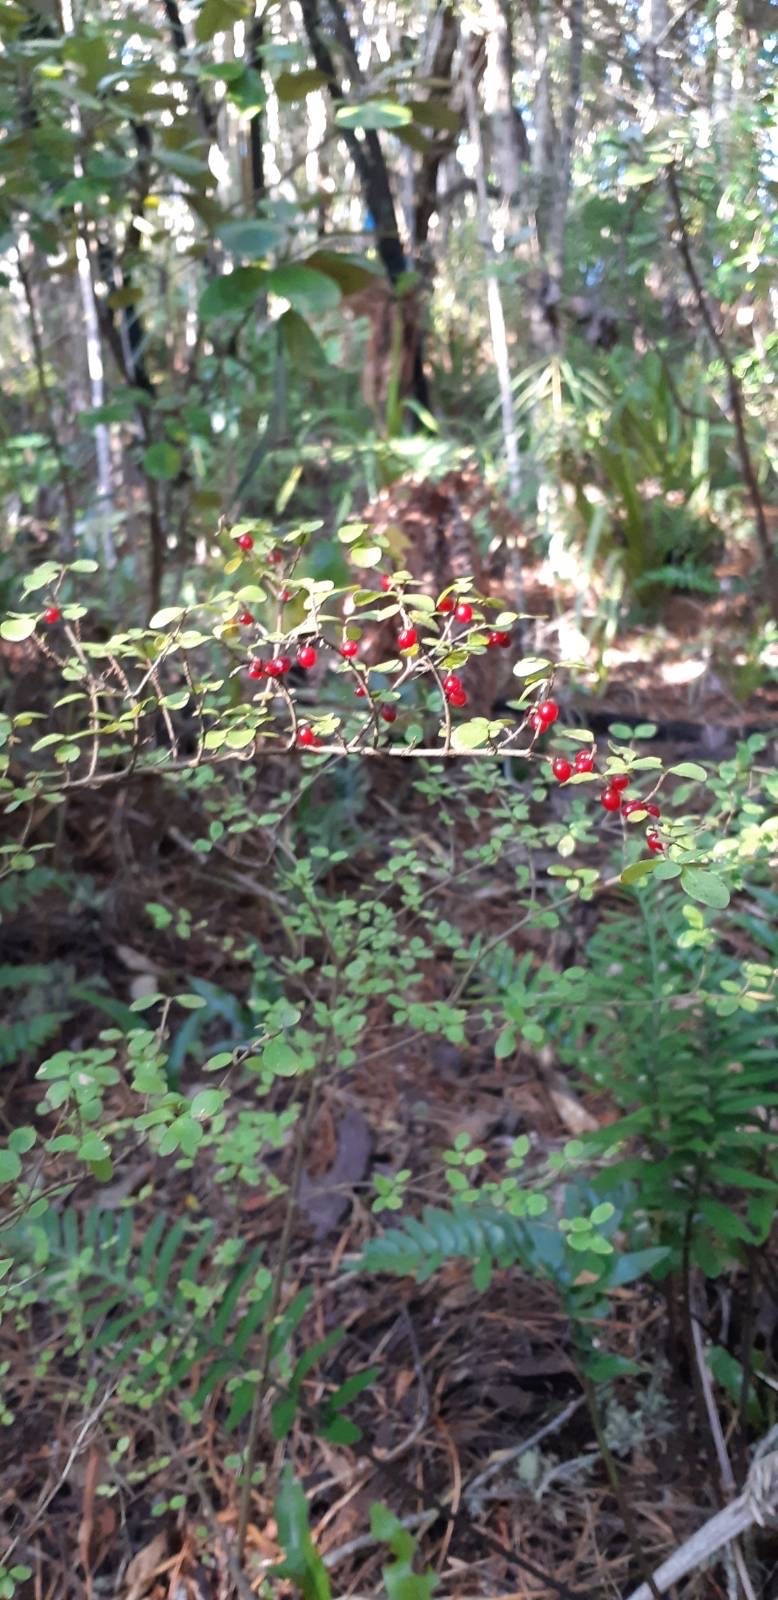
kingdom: Plantae
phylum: Tracheophyta
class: Magnoliopsida
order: Gentianales
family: Rubiaceae
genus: Coprosma
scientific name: Coprosma rhamnoides
